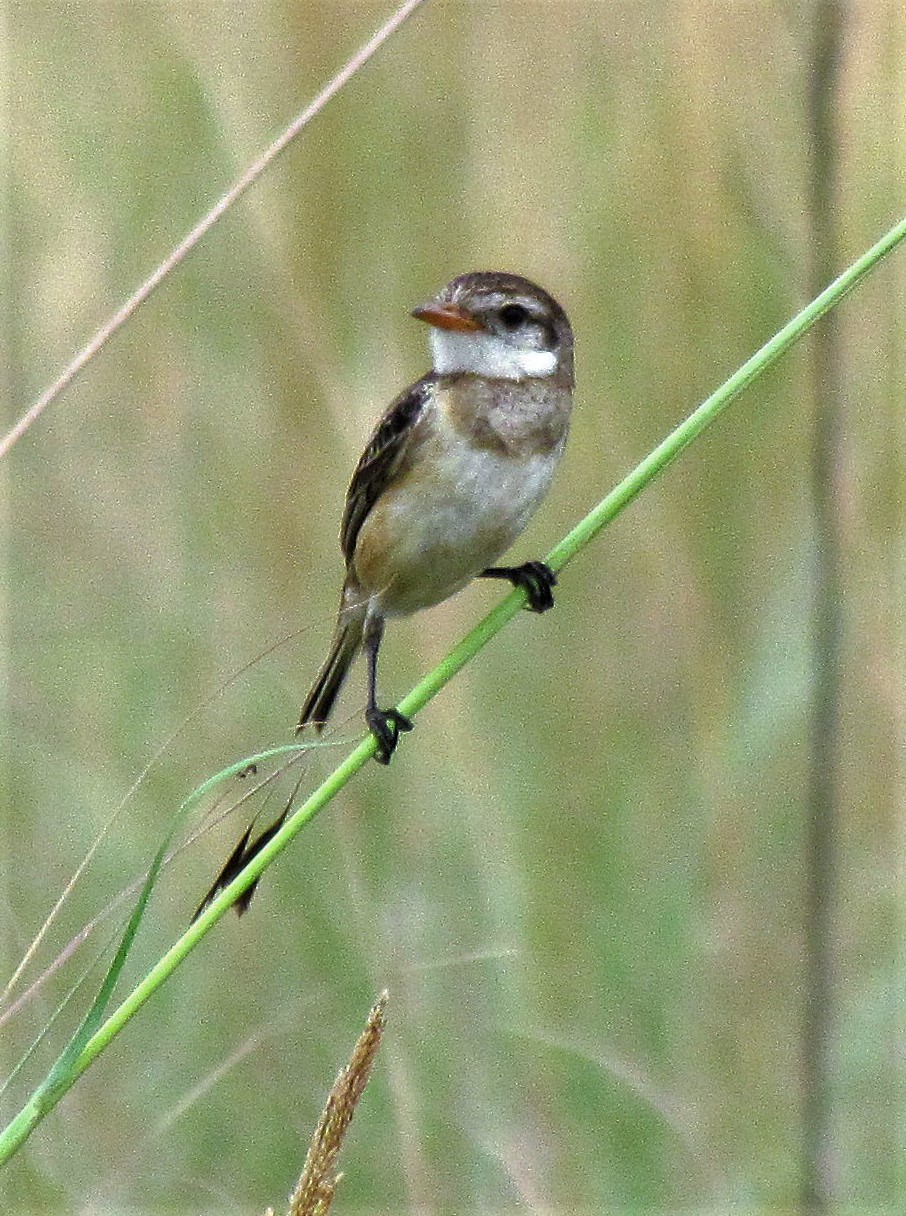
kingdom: Animalia
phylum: Chordata
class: Aves
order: Passeriformes
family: Tyrannidae
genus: Alectrurus
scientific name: Alectrurus risora
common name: Strange-tailed tyrant
